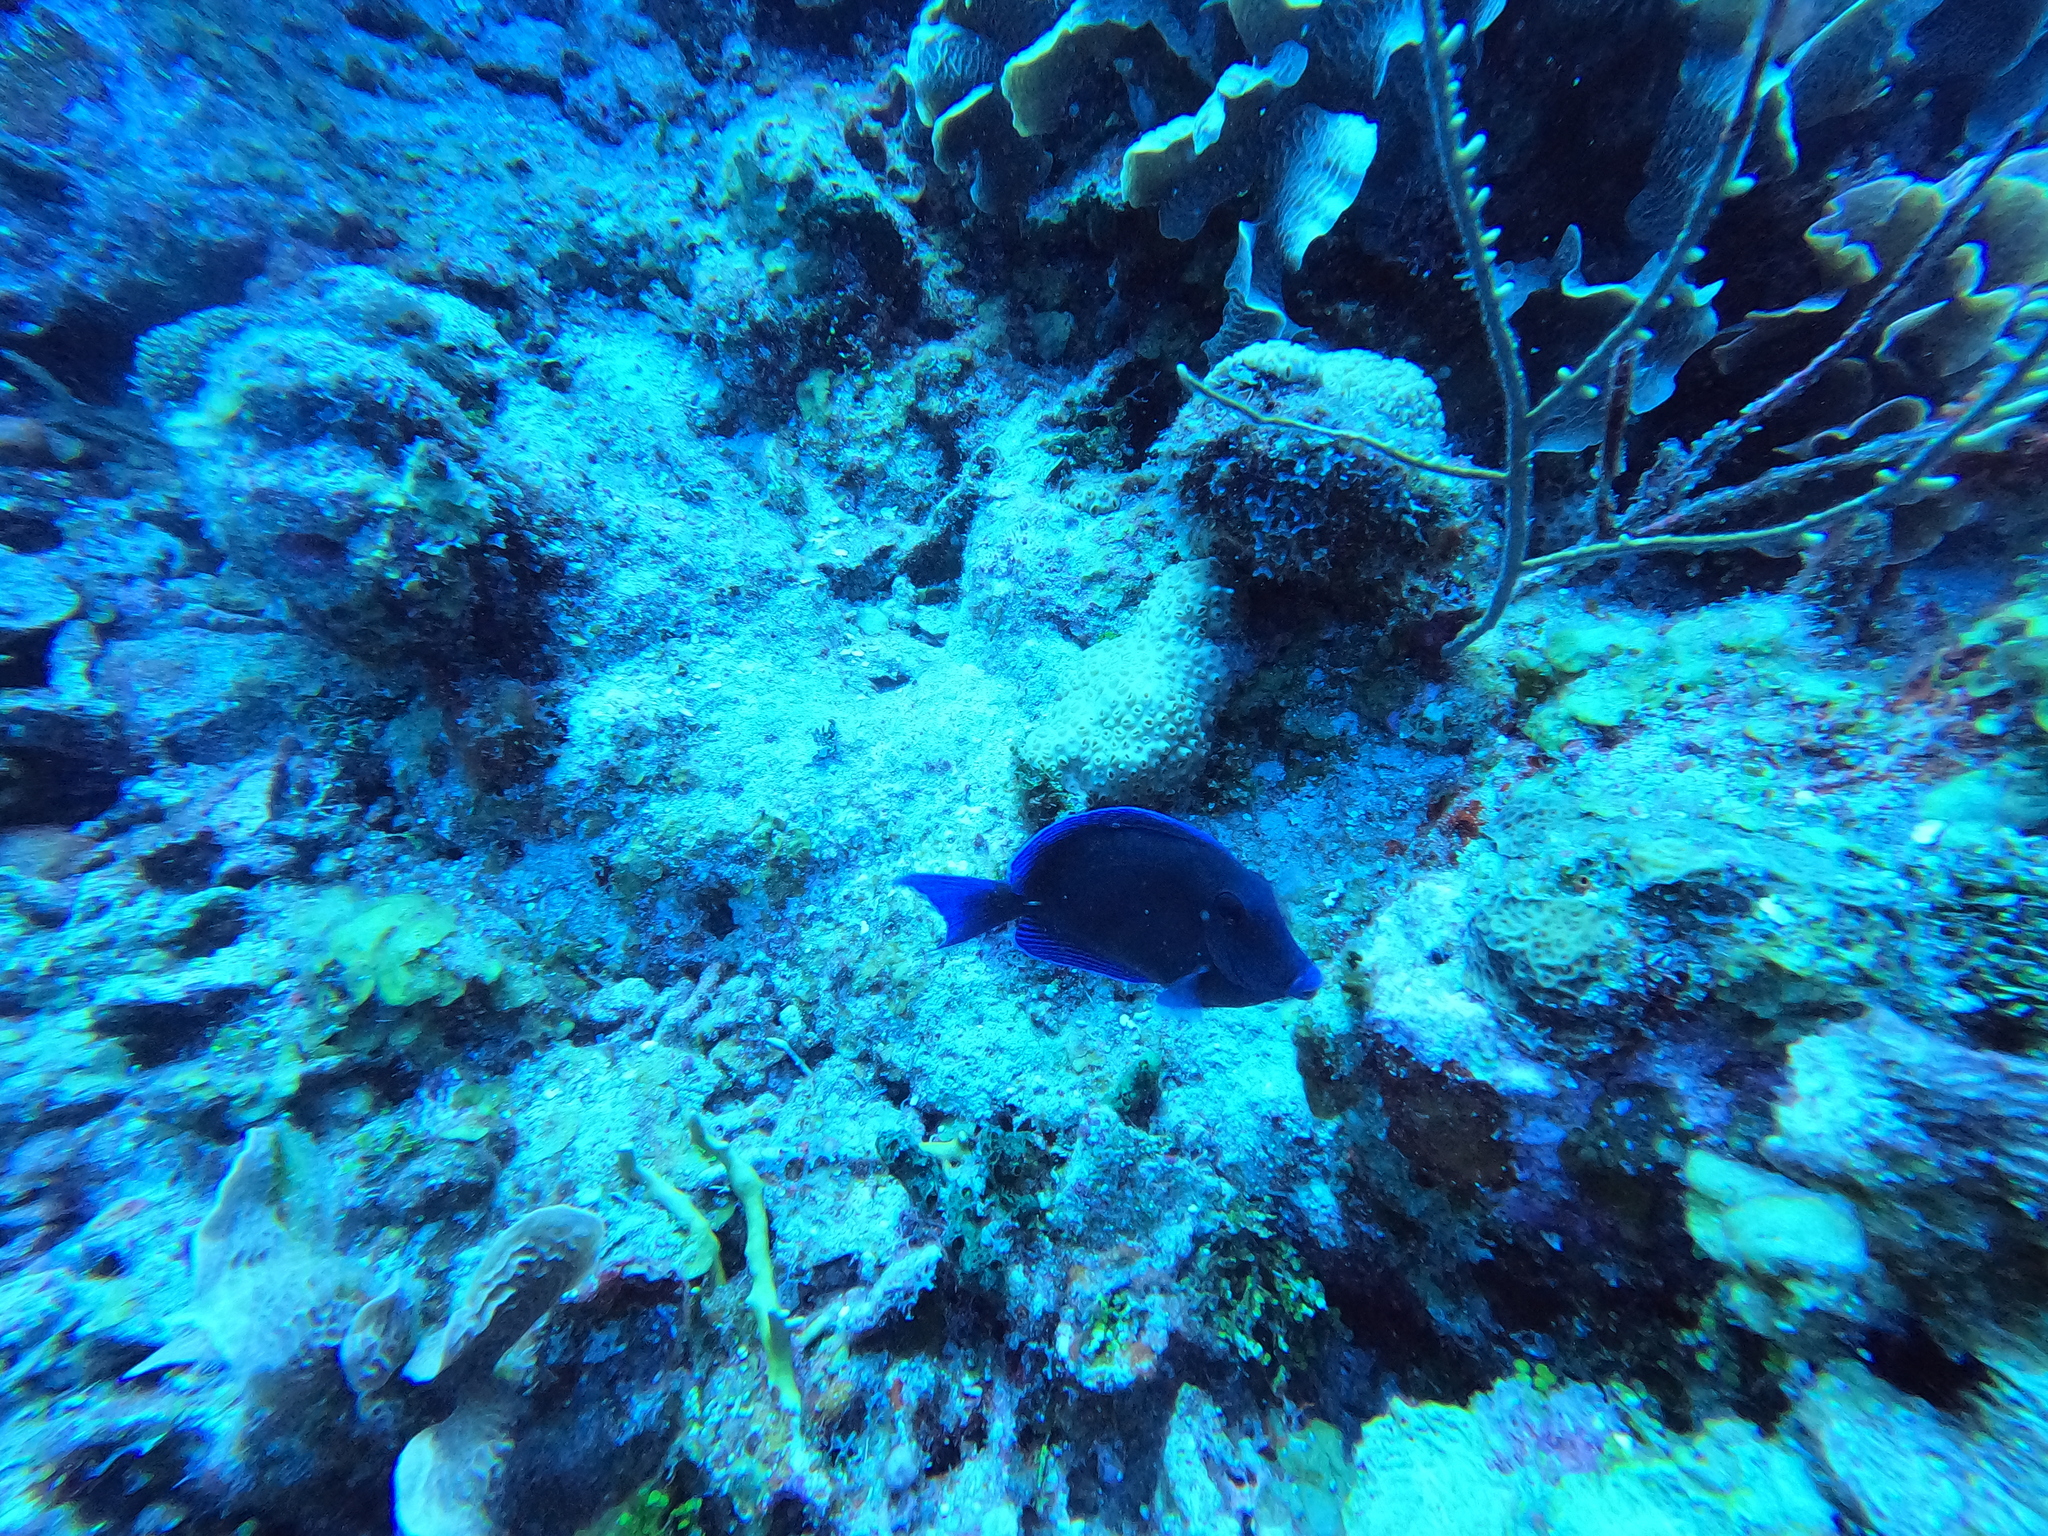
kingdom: Animalia
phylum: Chordata
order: Perciformes
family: Acanthuridae
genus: Acanthurus
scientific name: Acanthurus coeruleus
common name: Blue tang
